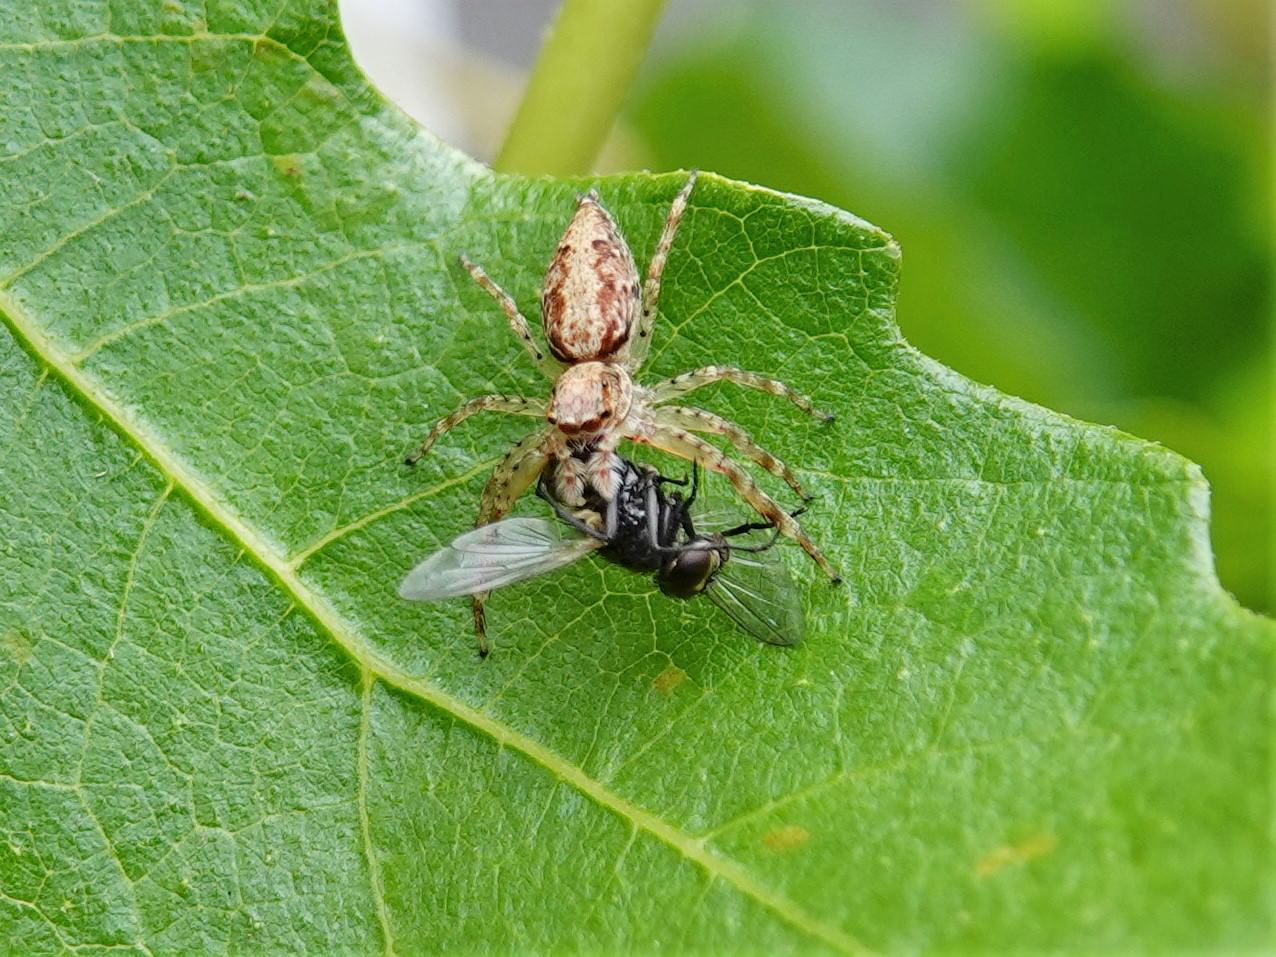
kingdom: Animalia
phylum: Arthropoda
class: Arachnida
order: Araneae
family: Salticidae
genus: Helpis
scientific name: Helpis minitabunda
